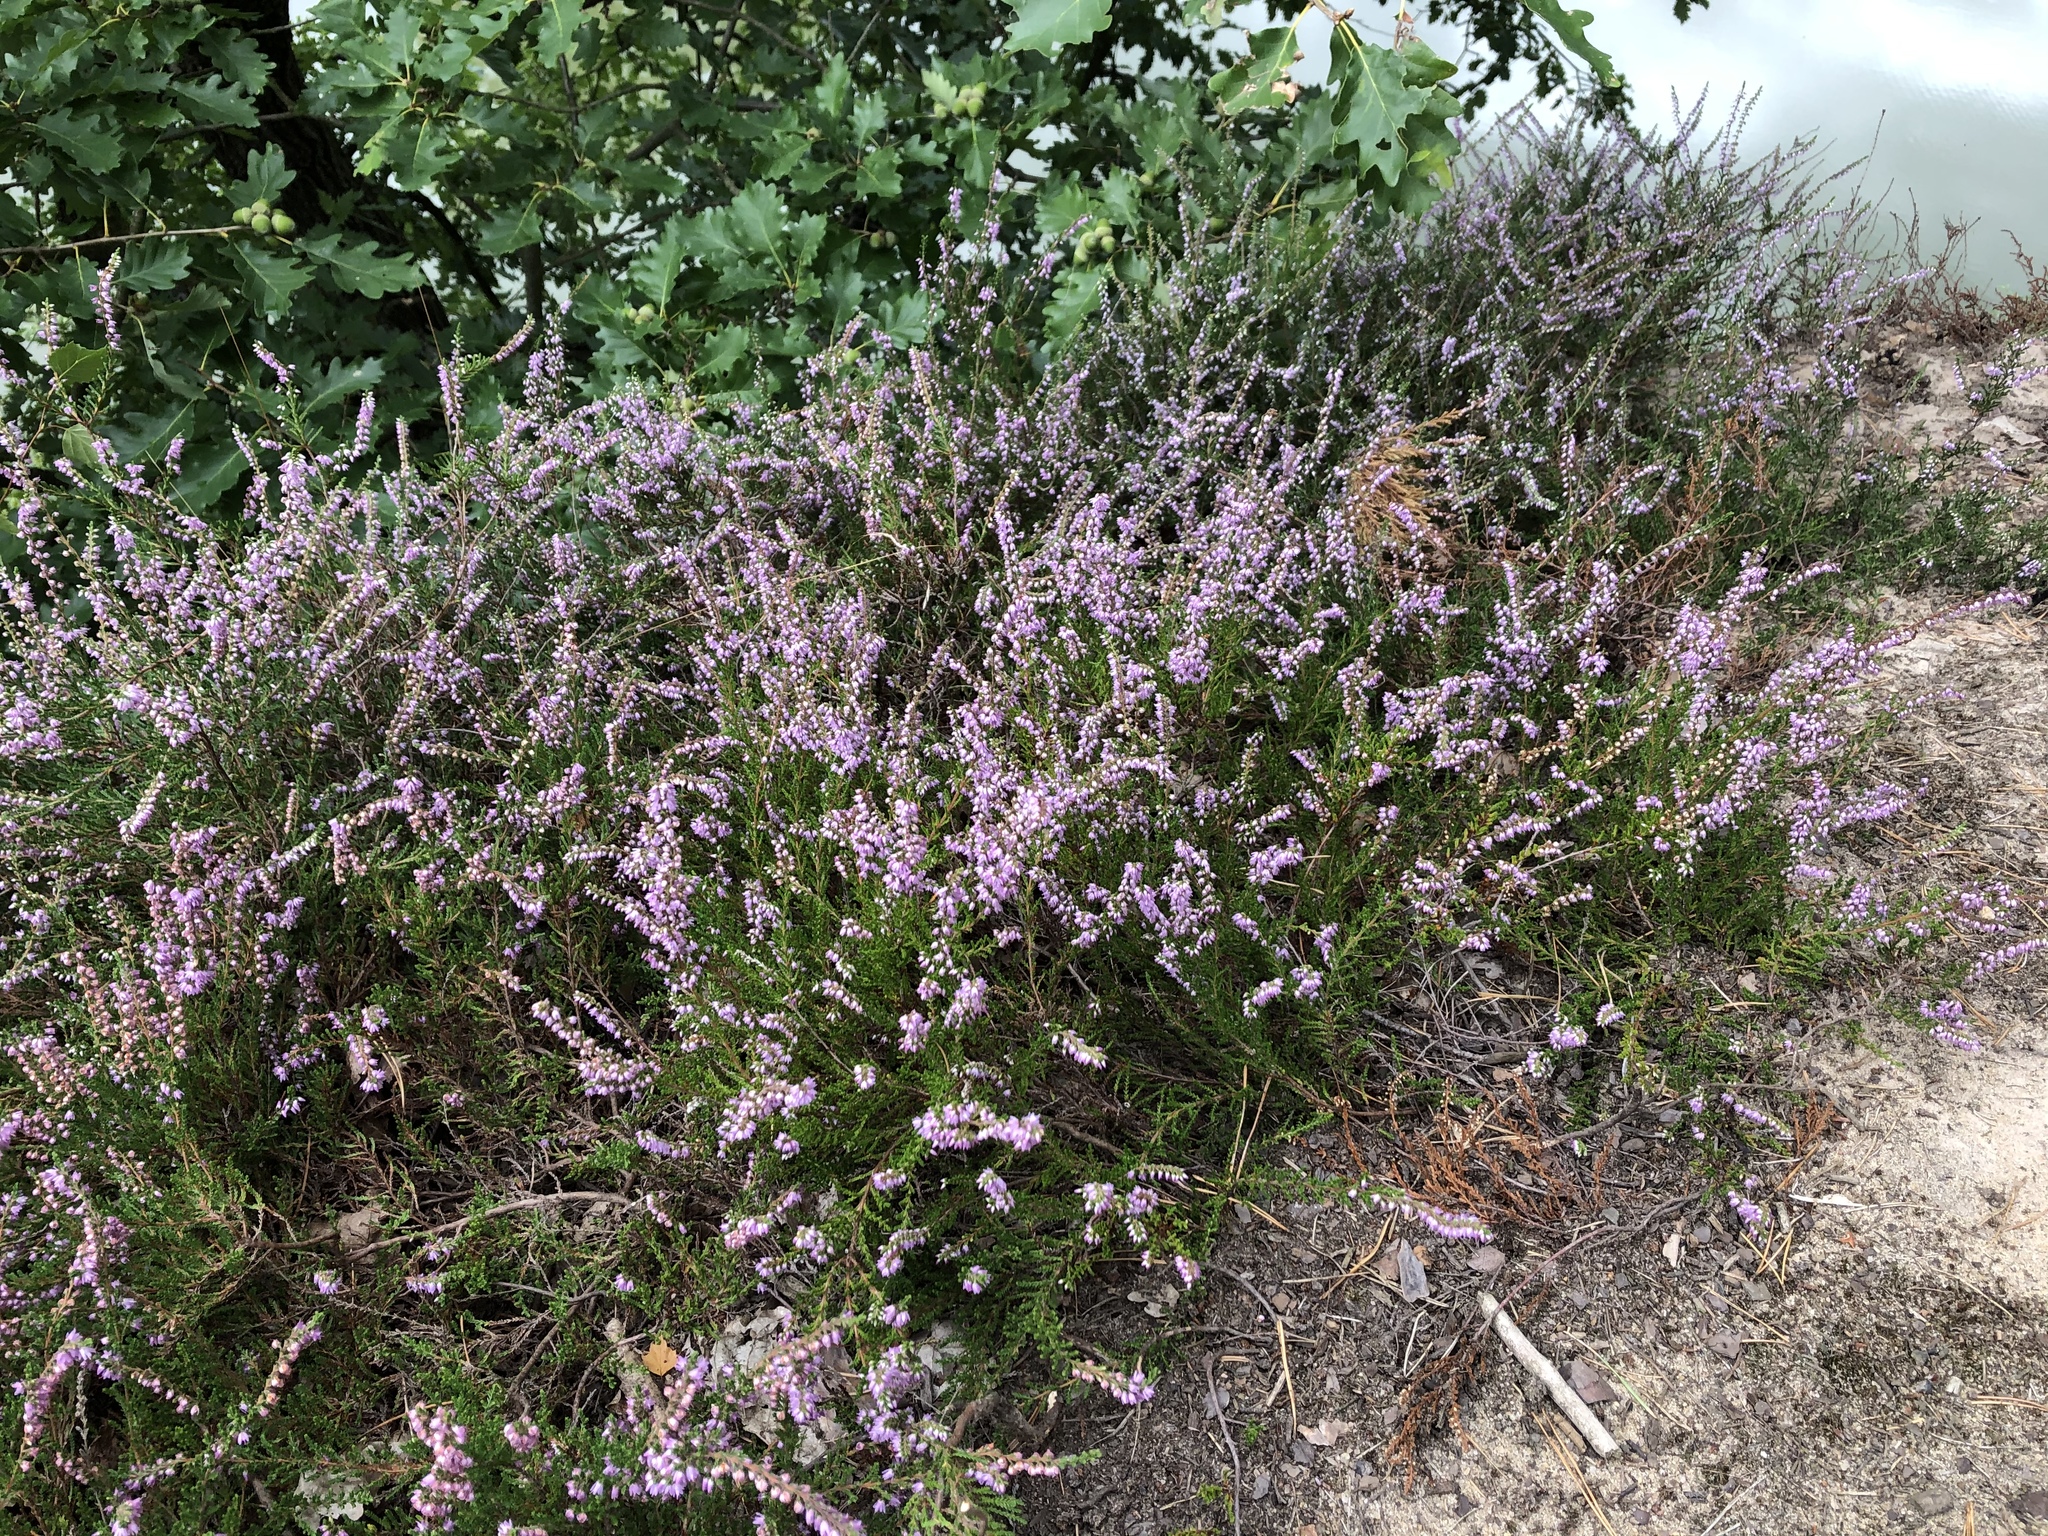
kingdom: Plantae
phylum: Tracheophyta
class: Magnoliopsida
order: Ericales
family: Ericaceae
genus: Calluna
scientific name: Calluna vulgaris
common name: Heather
